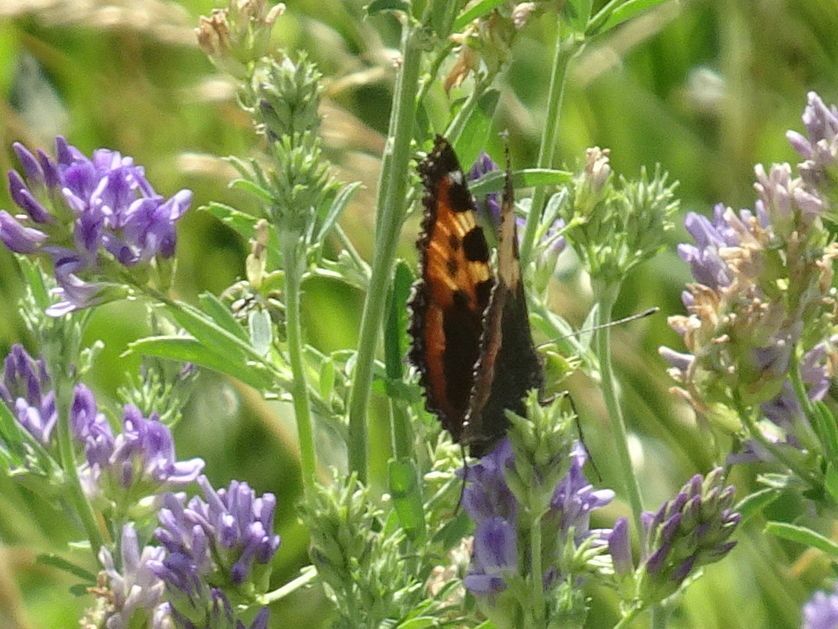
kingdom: Animalia
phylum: Arthropoda
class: Insecta
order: Lepidoptera
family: Nymphalidae
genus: Aglais
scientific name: Aglais urticae
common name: Small tortoiseshell
